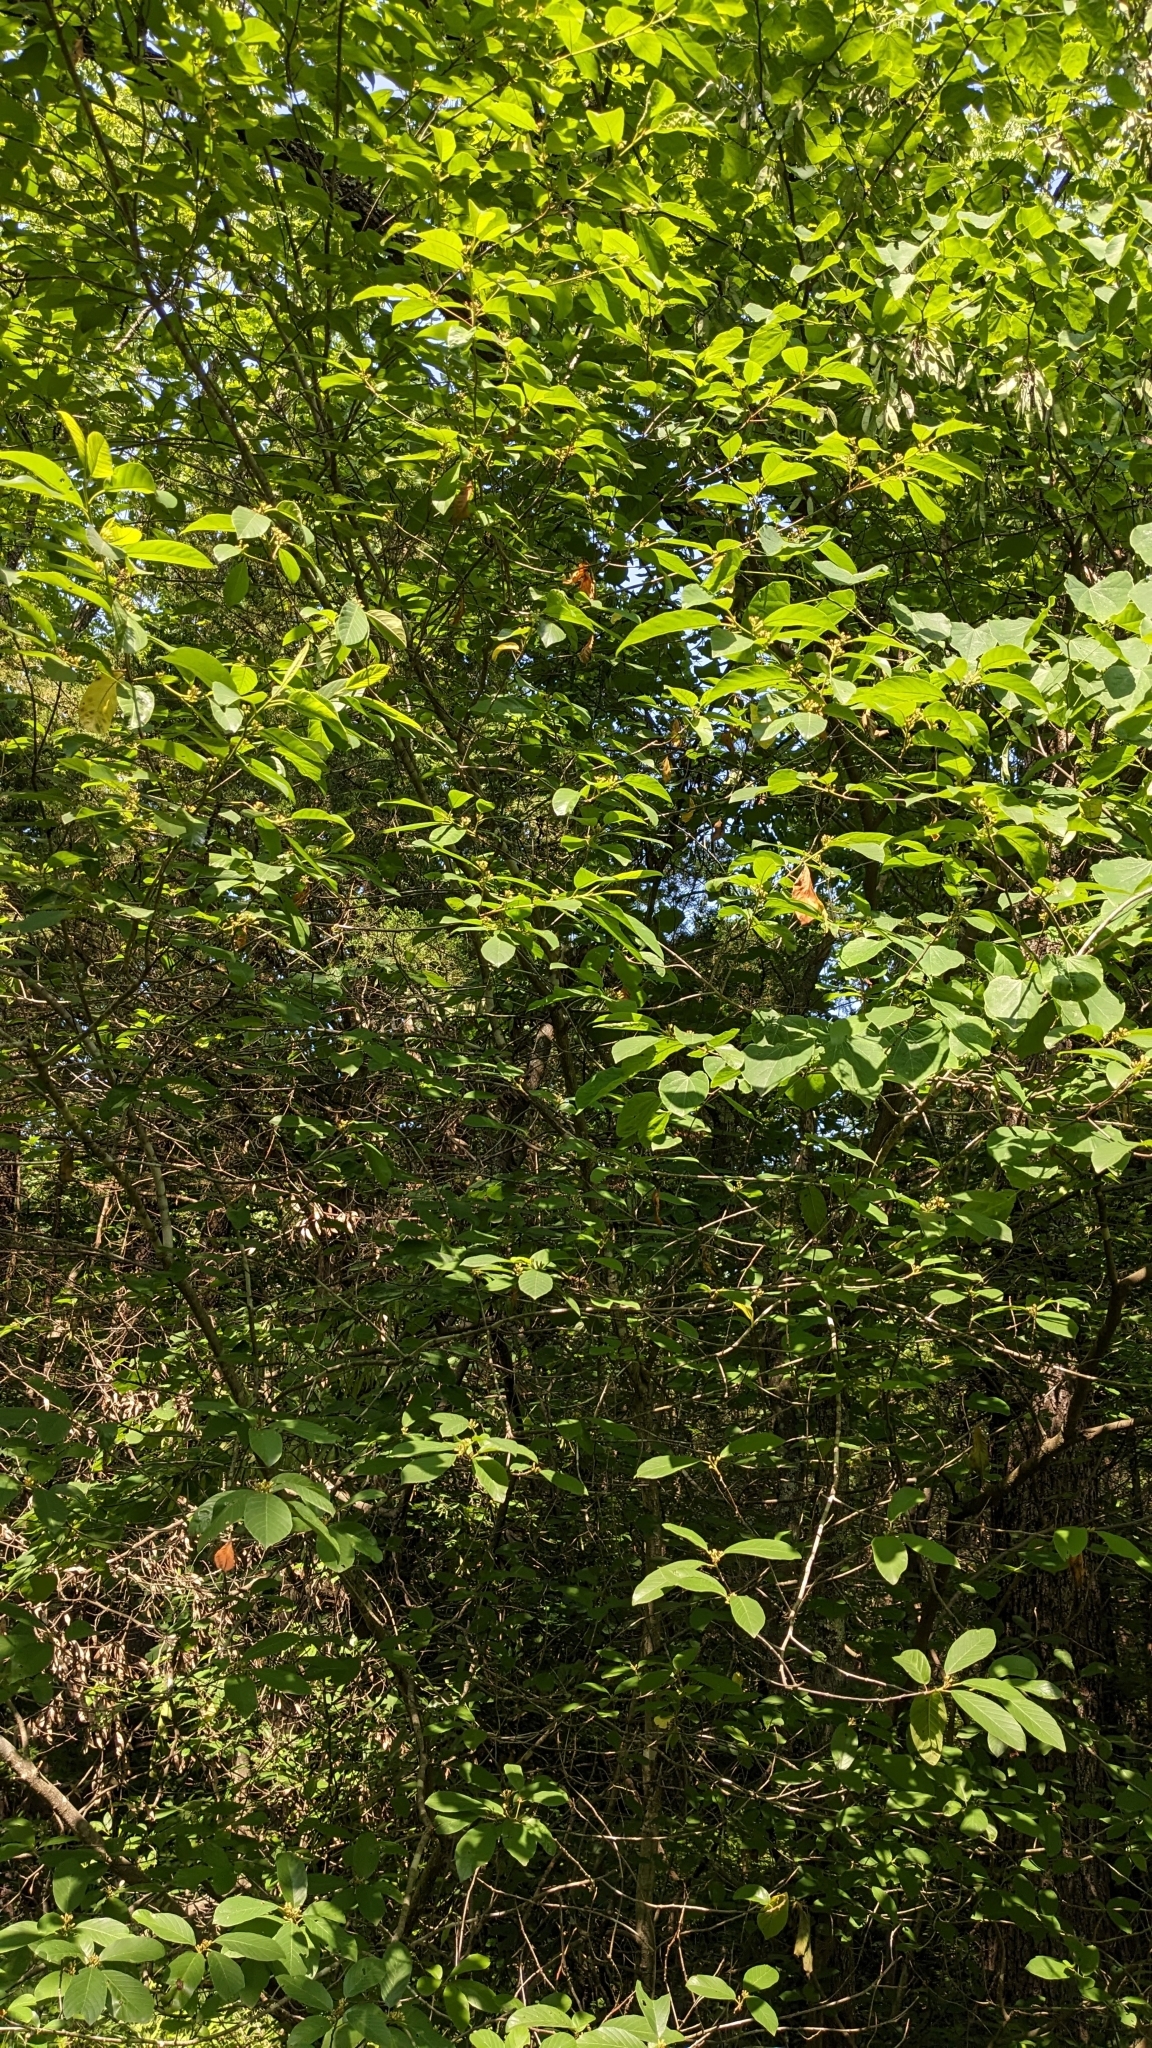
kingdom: Plantae
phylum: Tracheophyta
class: Magnoliopsida
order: Rosales
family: Rhamnaceae
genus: Frangula
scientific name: Frangula caroliniana
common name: Carolina buckthorn
